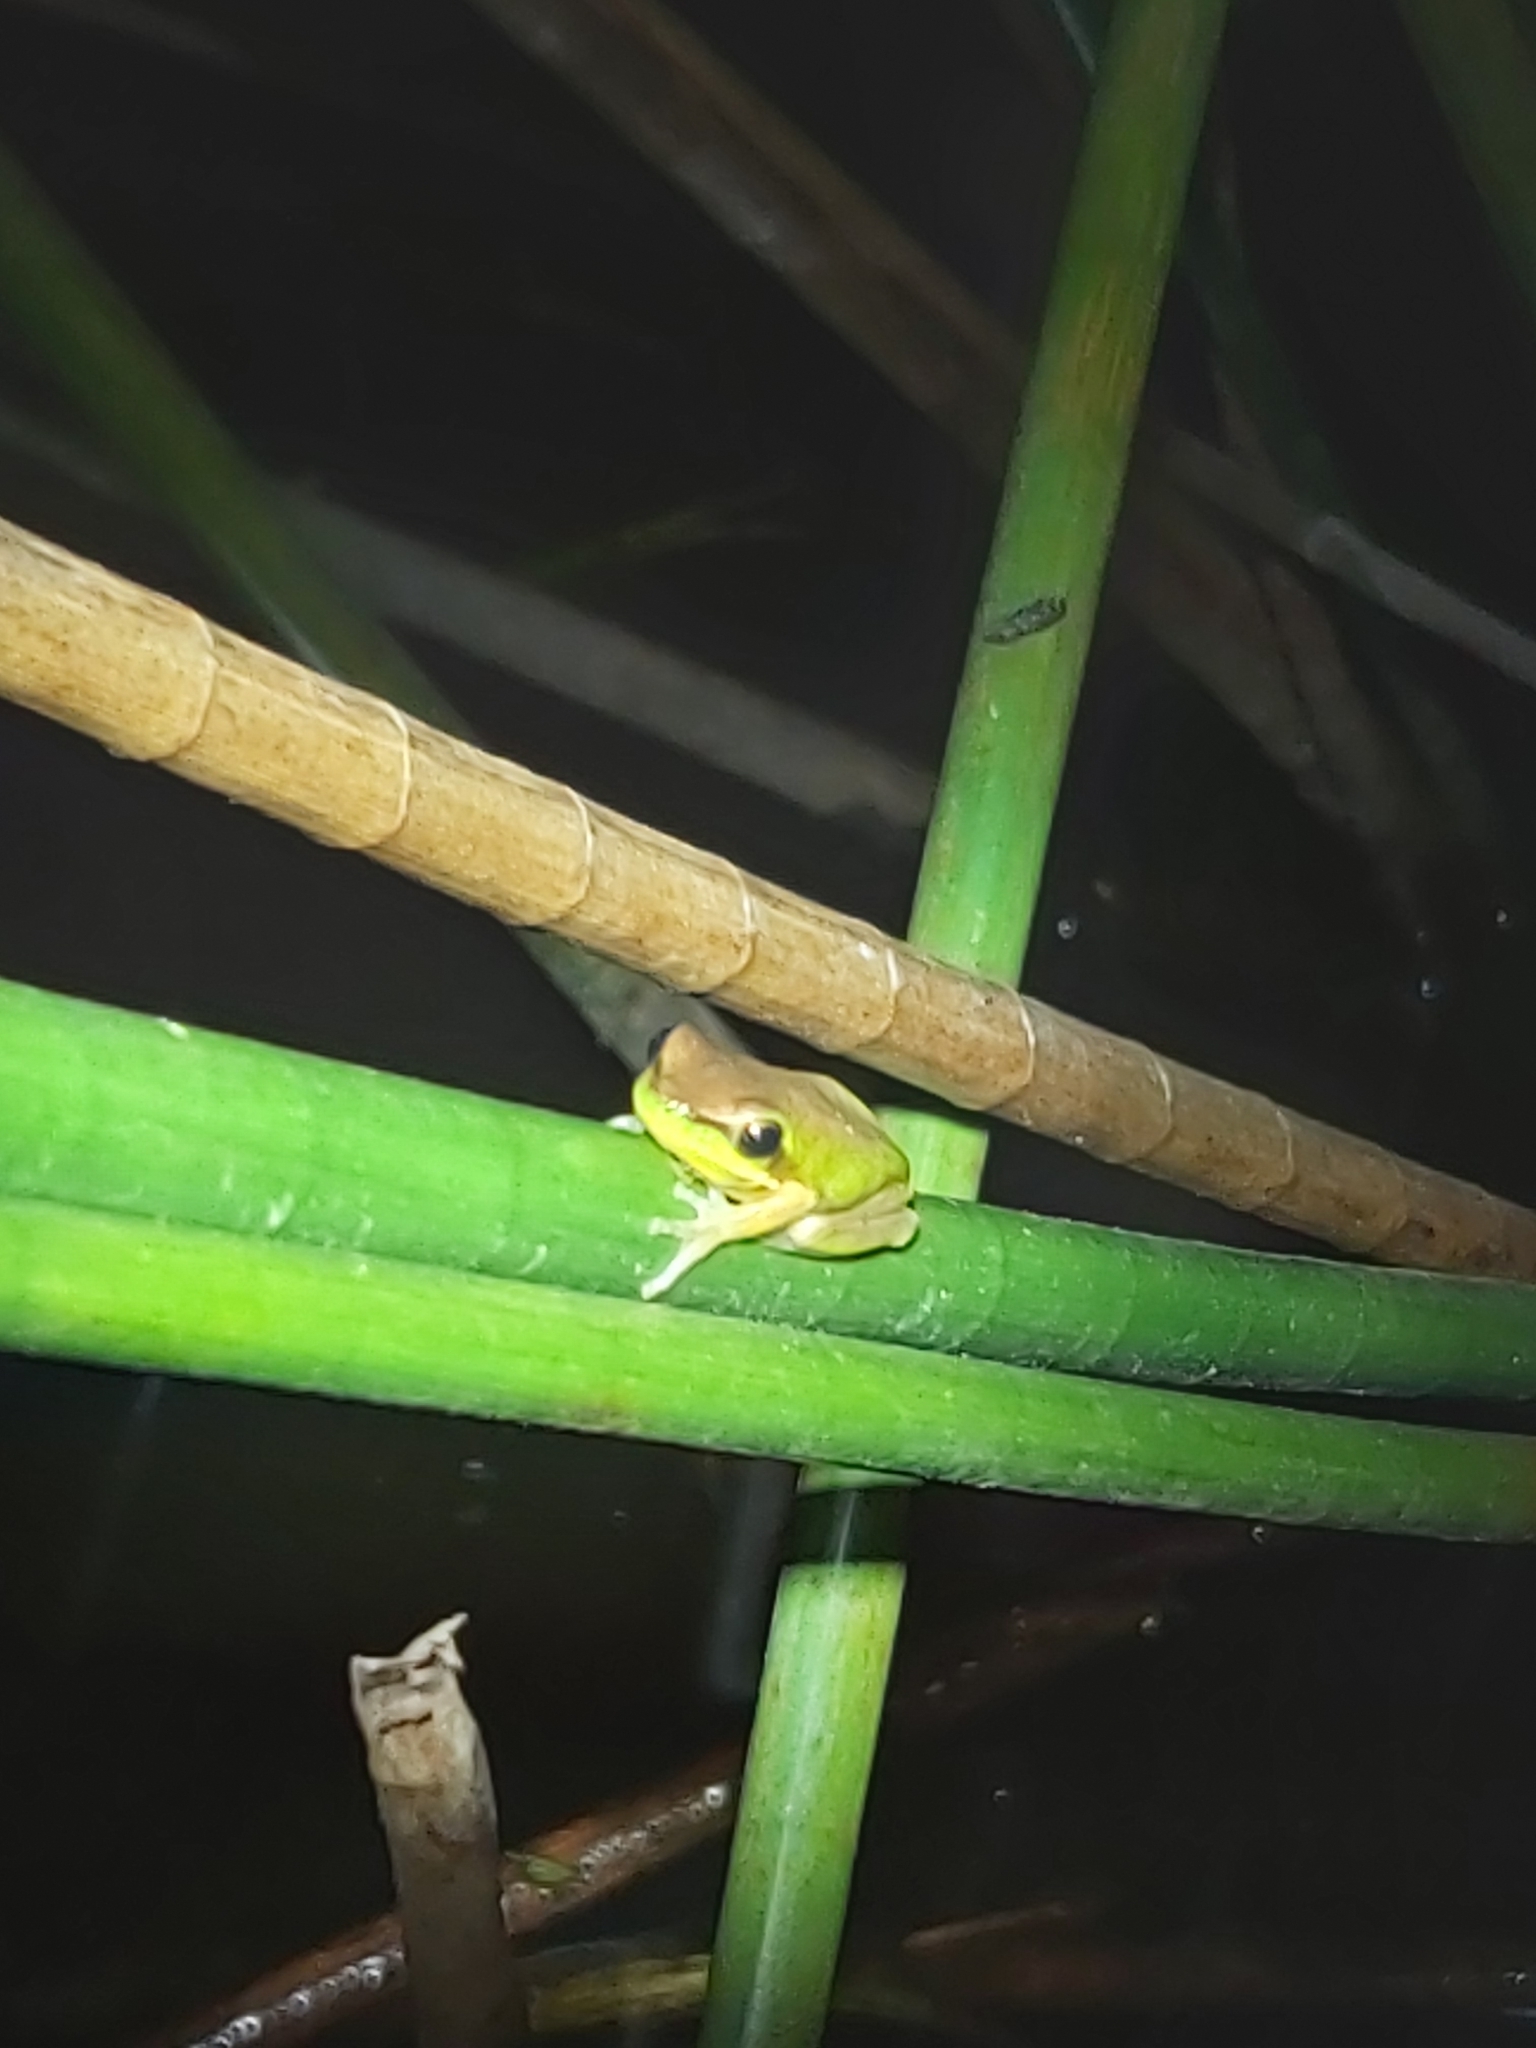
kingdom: Animalia
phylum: Chordata
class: Amphibia
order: Anura
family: Pelodryadidae
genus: Litoria
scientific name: Litoria fallax
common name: Eastern dwarf treefrog
